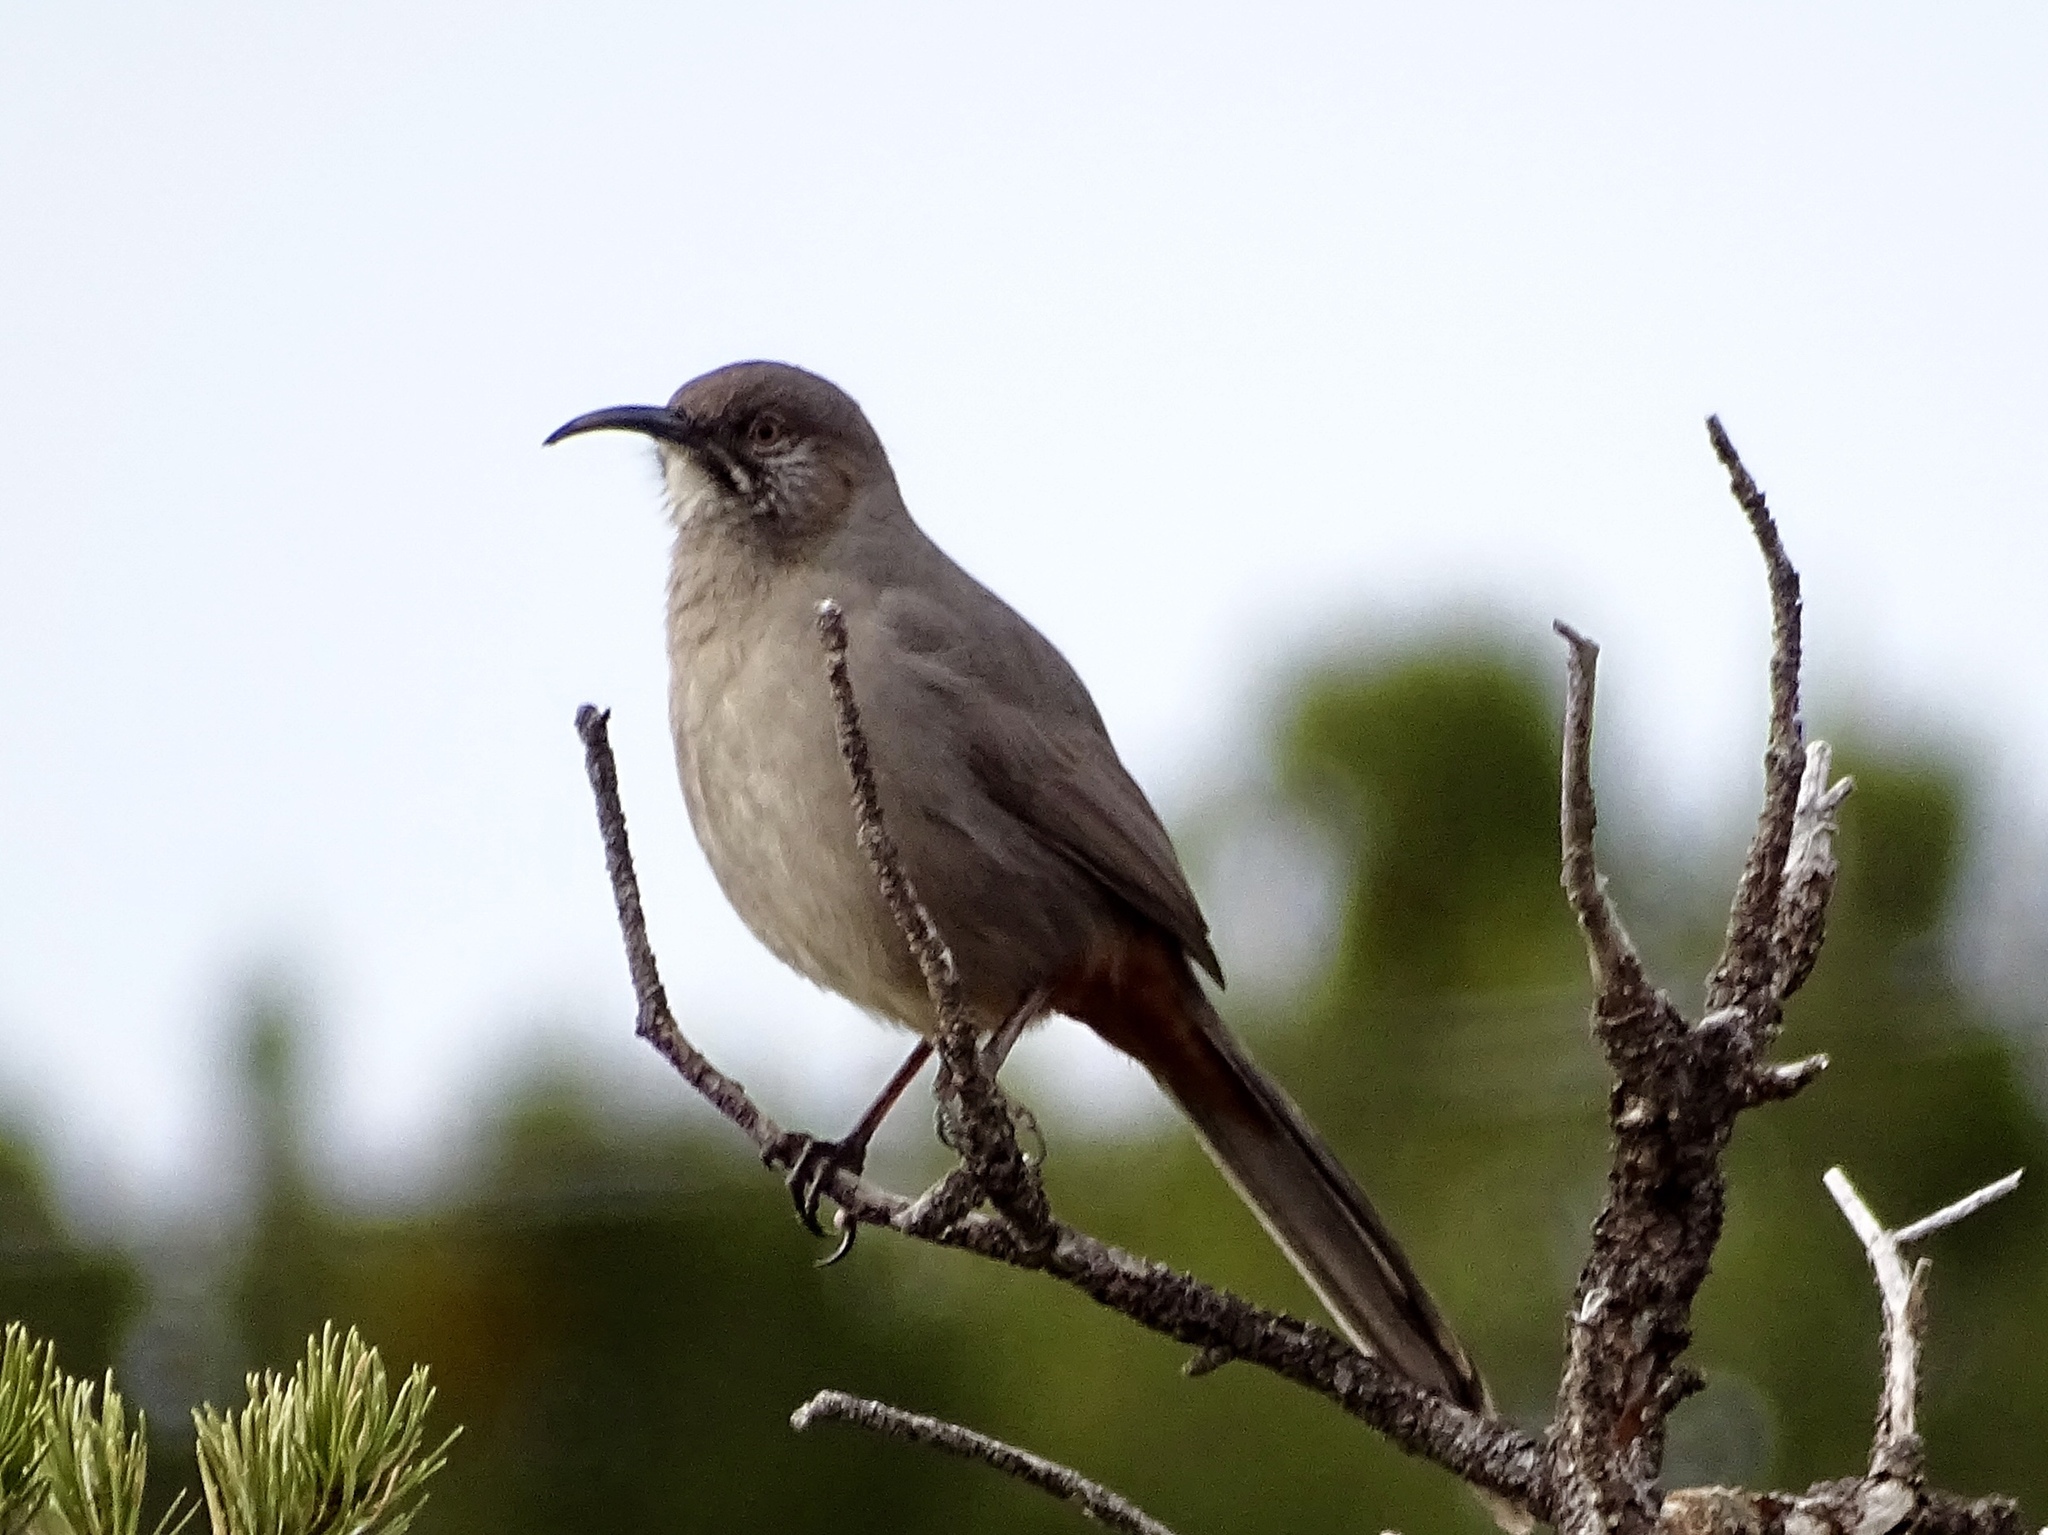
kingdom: Animalia
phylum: Chordata
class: Aves
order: Passeriformes
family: Mimidae
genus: Toxostoma
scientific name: Toxostoma crissale
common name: Crissal thrasher
